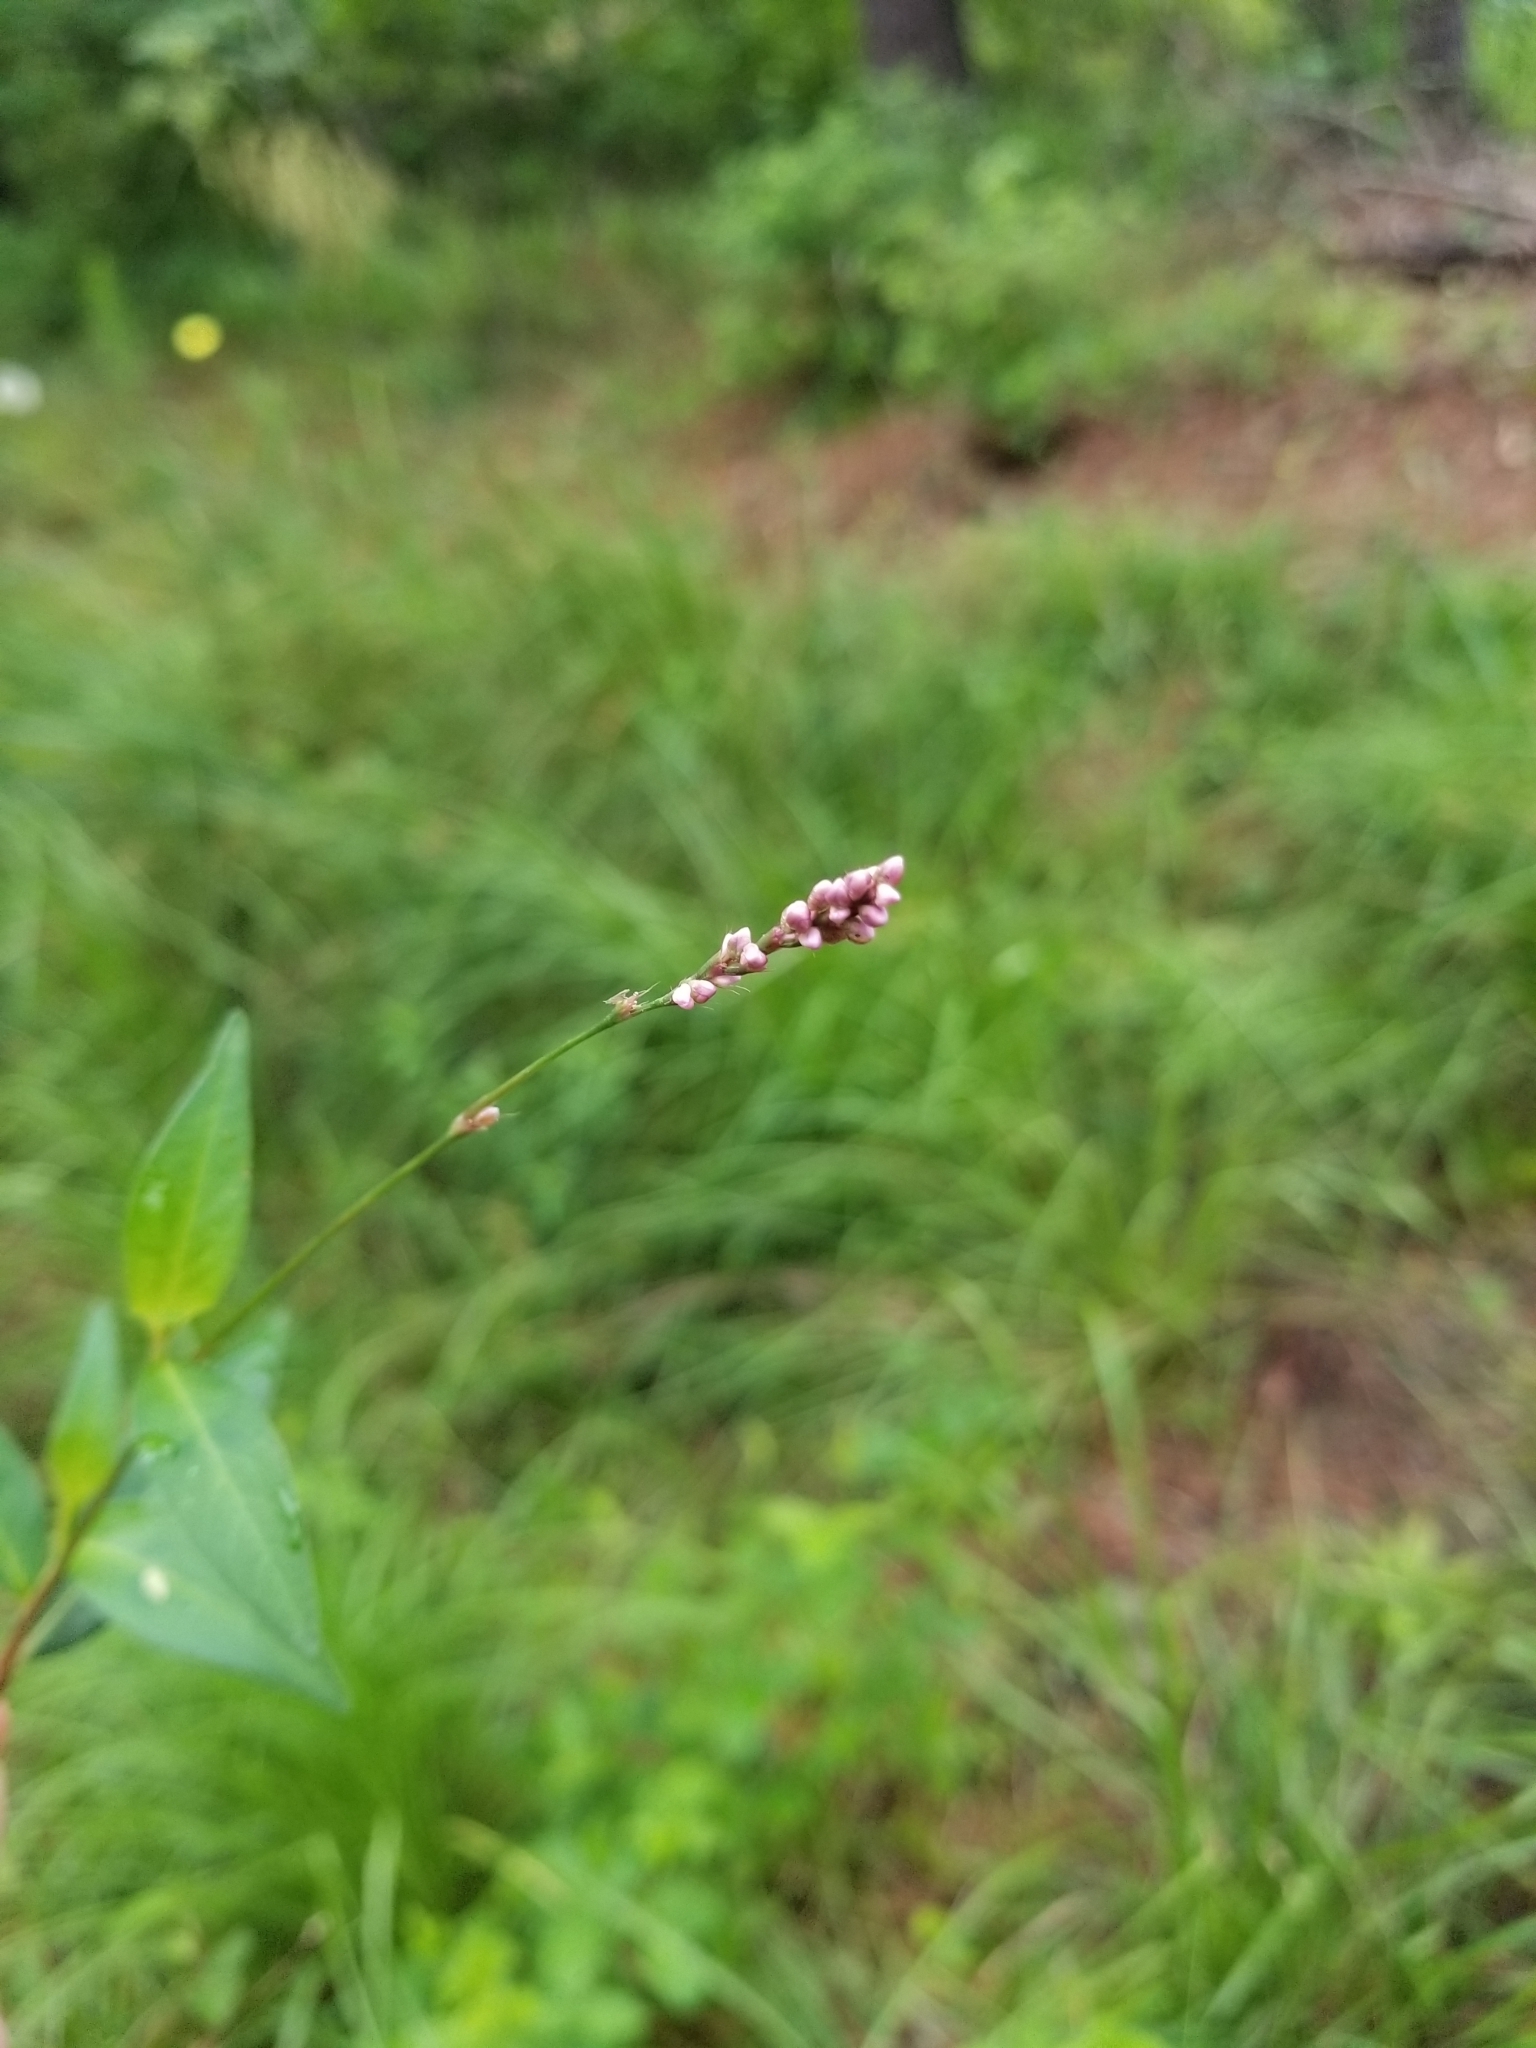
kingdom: Plantae
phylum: Tracheophyta
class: Magnoliopsida
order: Caryophyllales
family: Polygonaceae
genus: Persicaria
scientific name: Persicaria longiseta
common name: Bristly lady's-thumb
